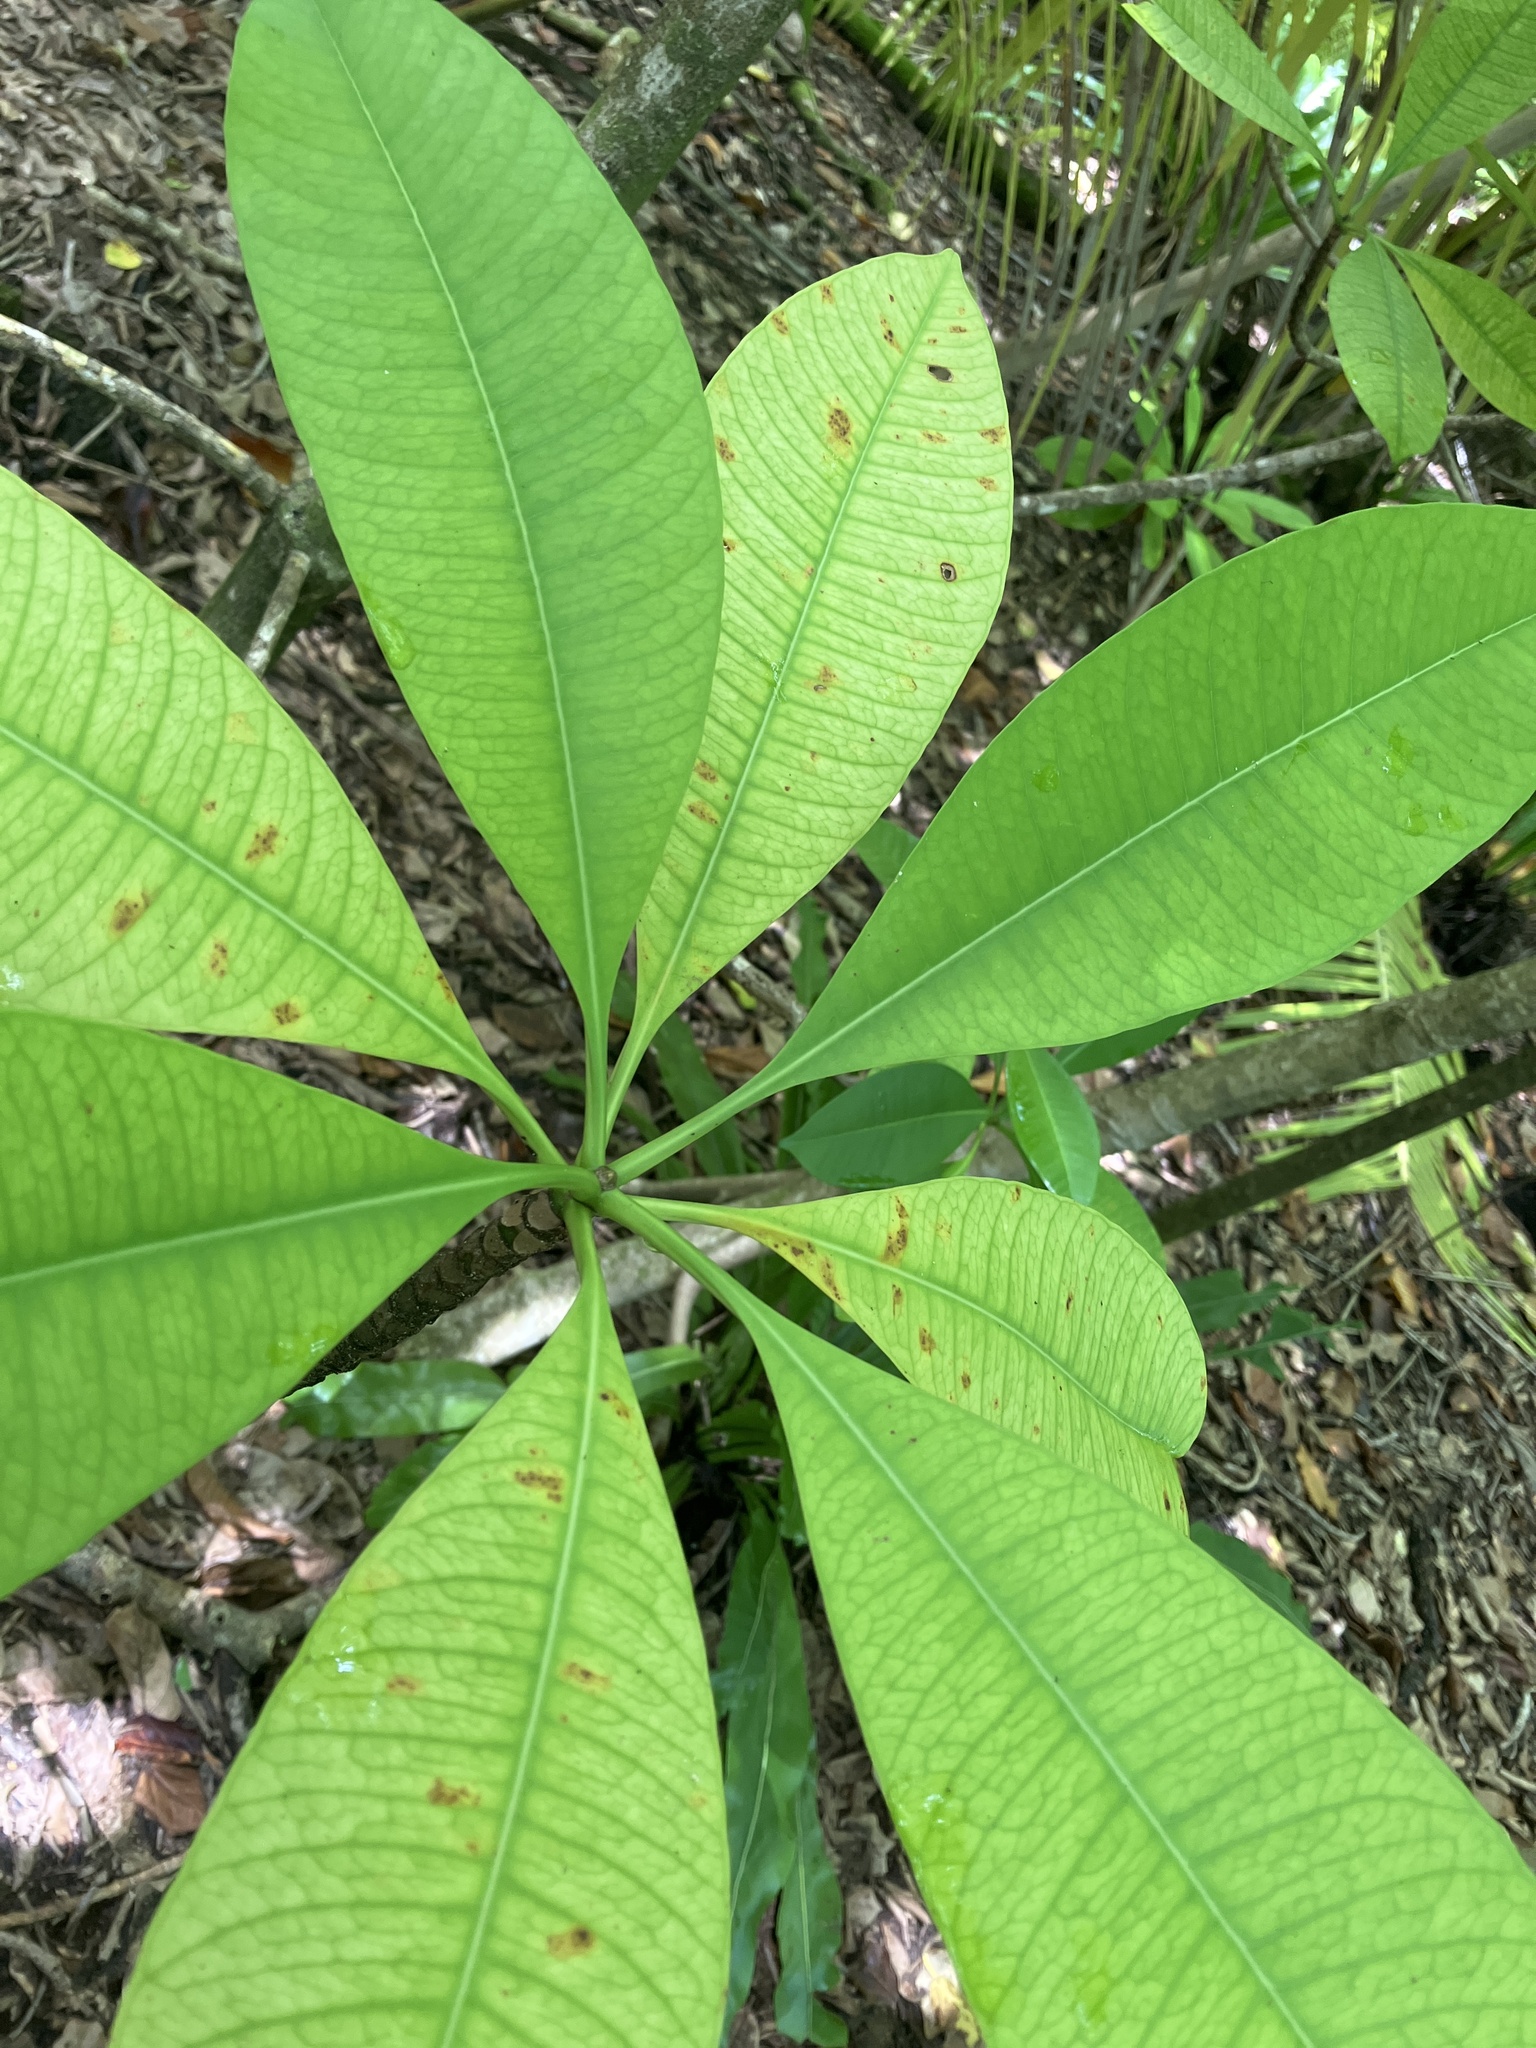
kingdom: Plantae
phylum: Tracheophyta
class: Magnoliopsida
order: Gentianales
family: Apocynaceae
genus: Ochrosia
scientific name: Ochrosia oppositifolia
